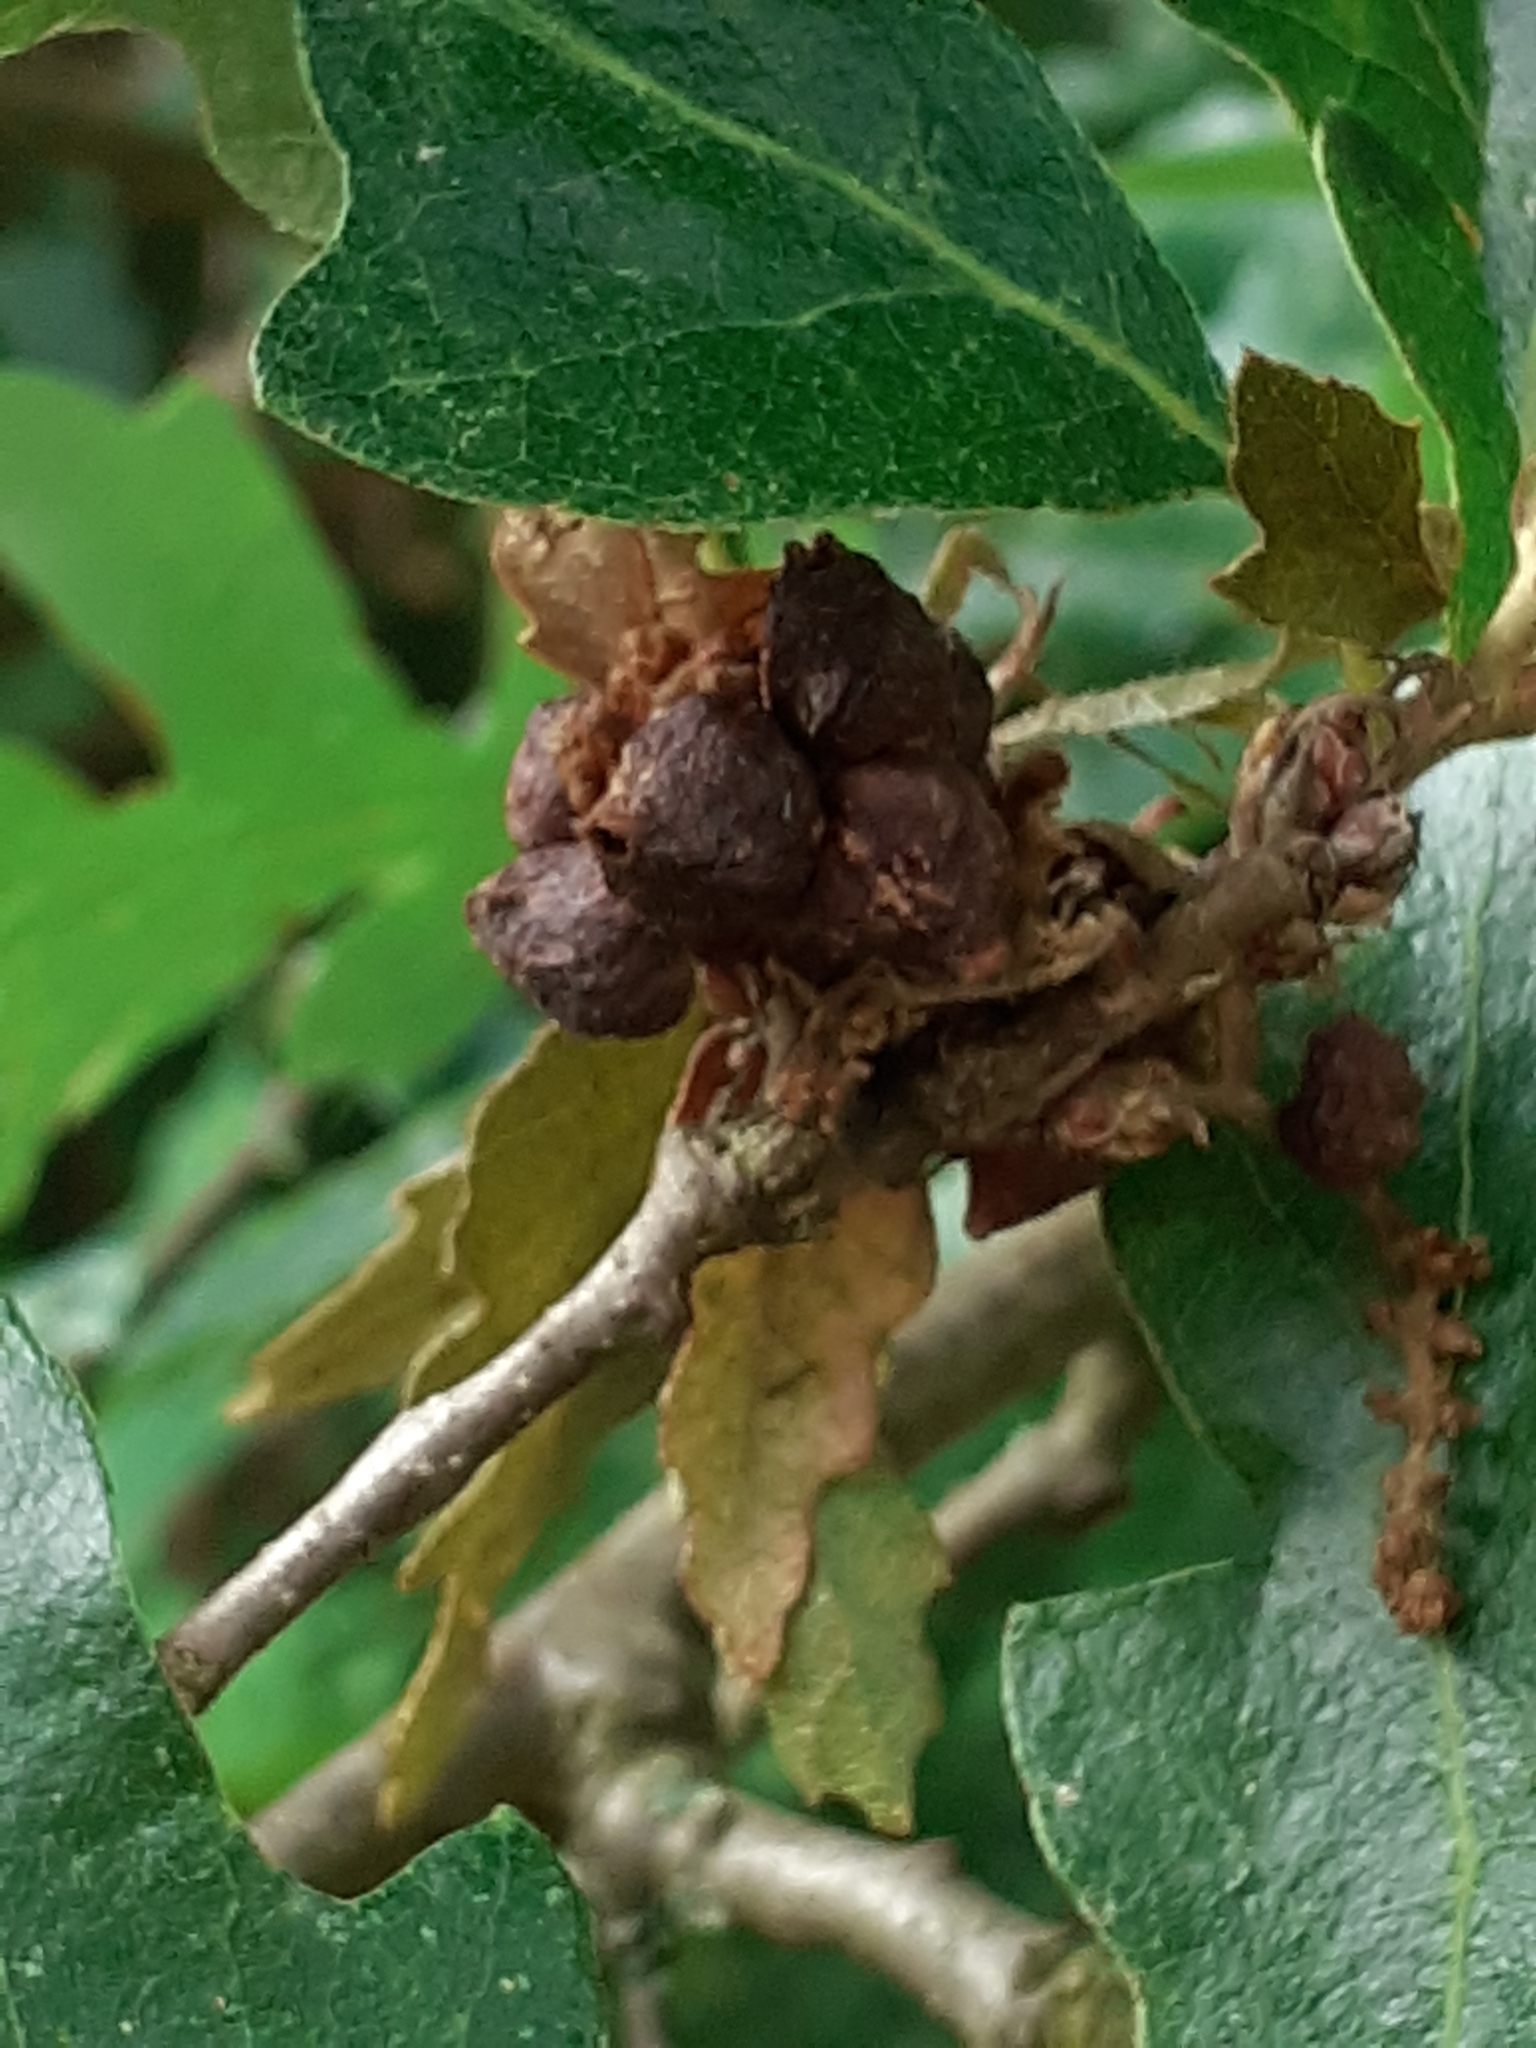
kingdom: Animalia
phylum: Arthropoda
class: Insecta
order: Hymenoptera
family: Cynipidae
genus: Andricus
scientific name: Andricus grossulariae
